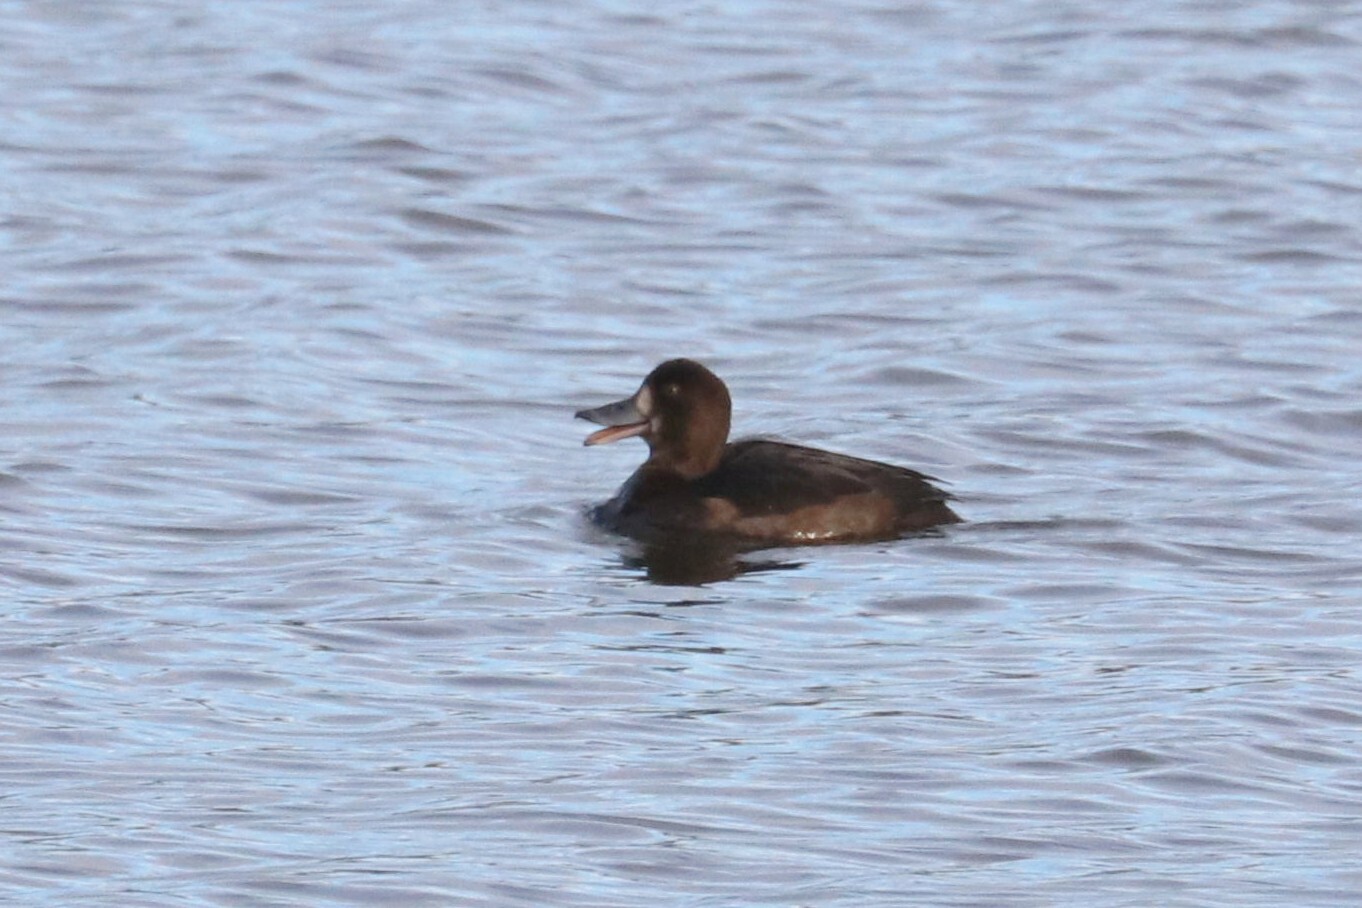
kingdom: Animalia
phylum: Chordata
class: Aves
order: Anseriformes
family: Anatidae
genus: Aythya
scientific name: Aythya fuligula
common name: Tufted duck
